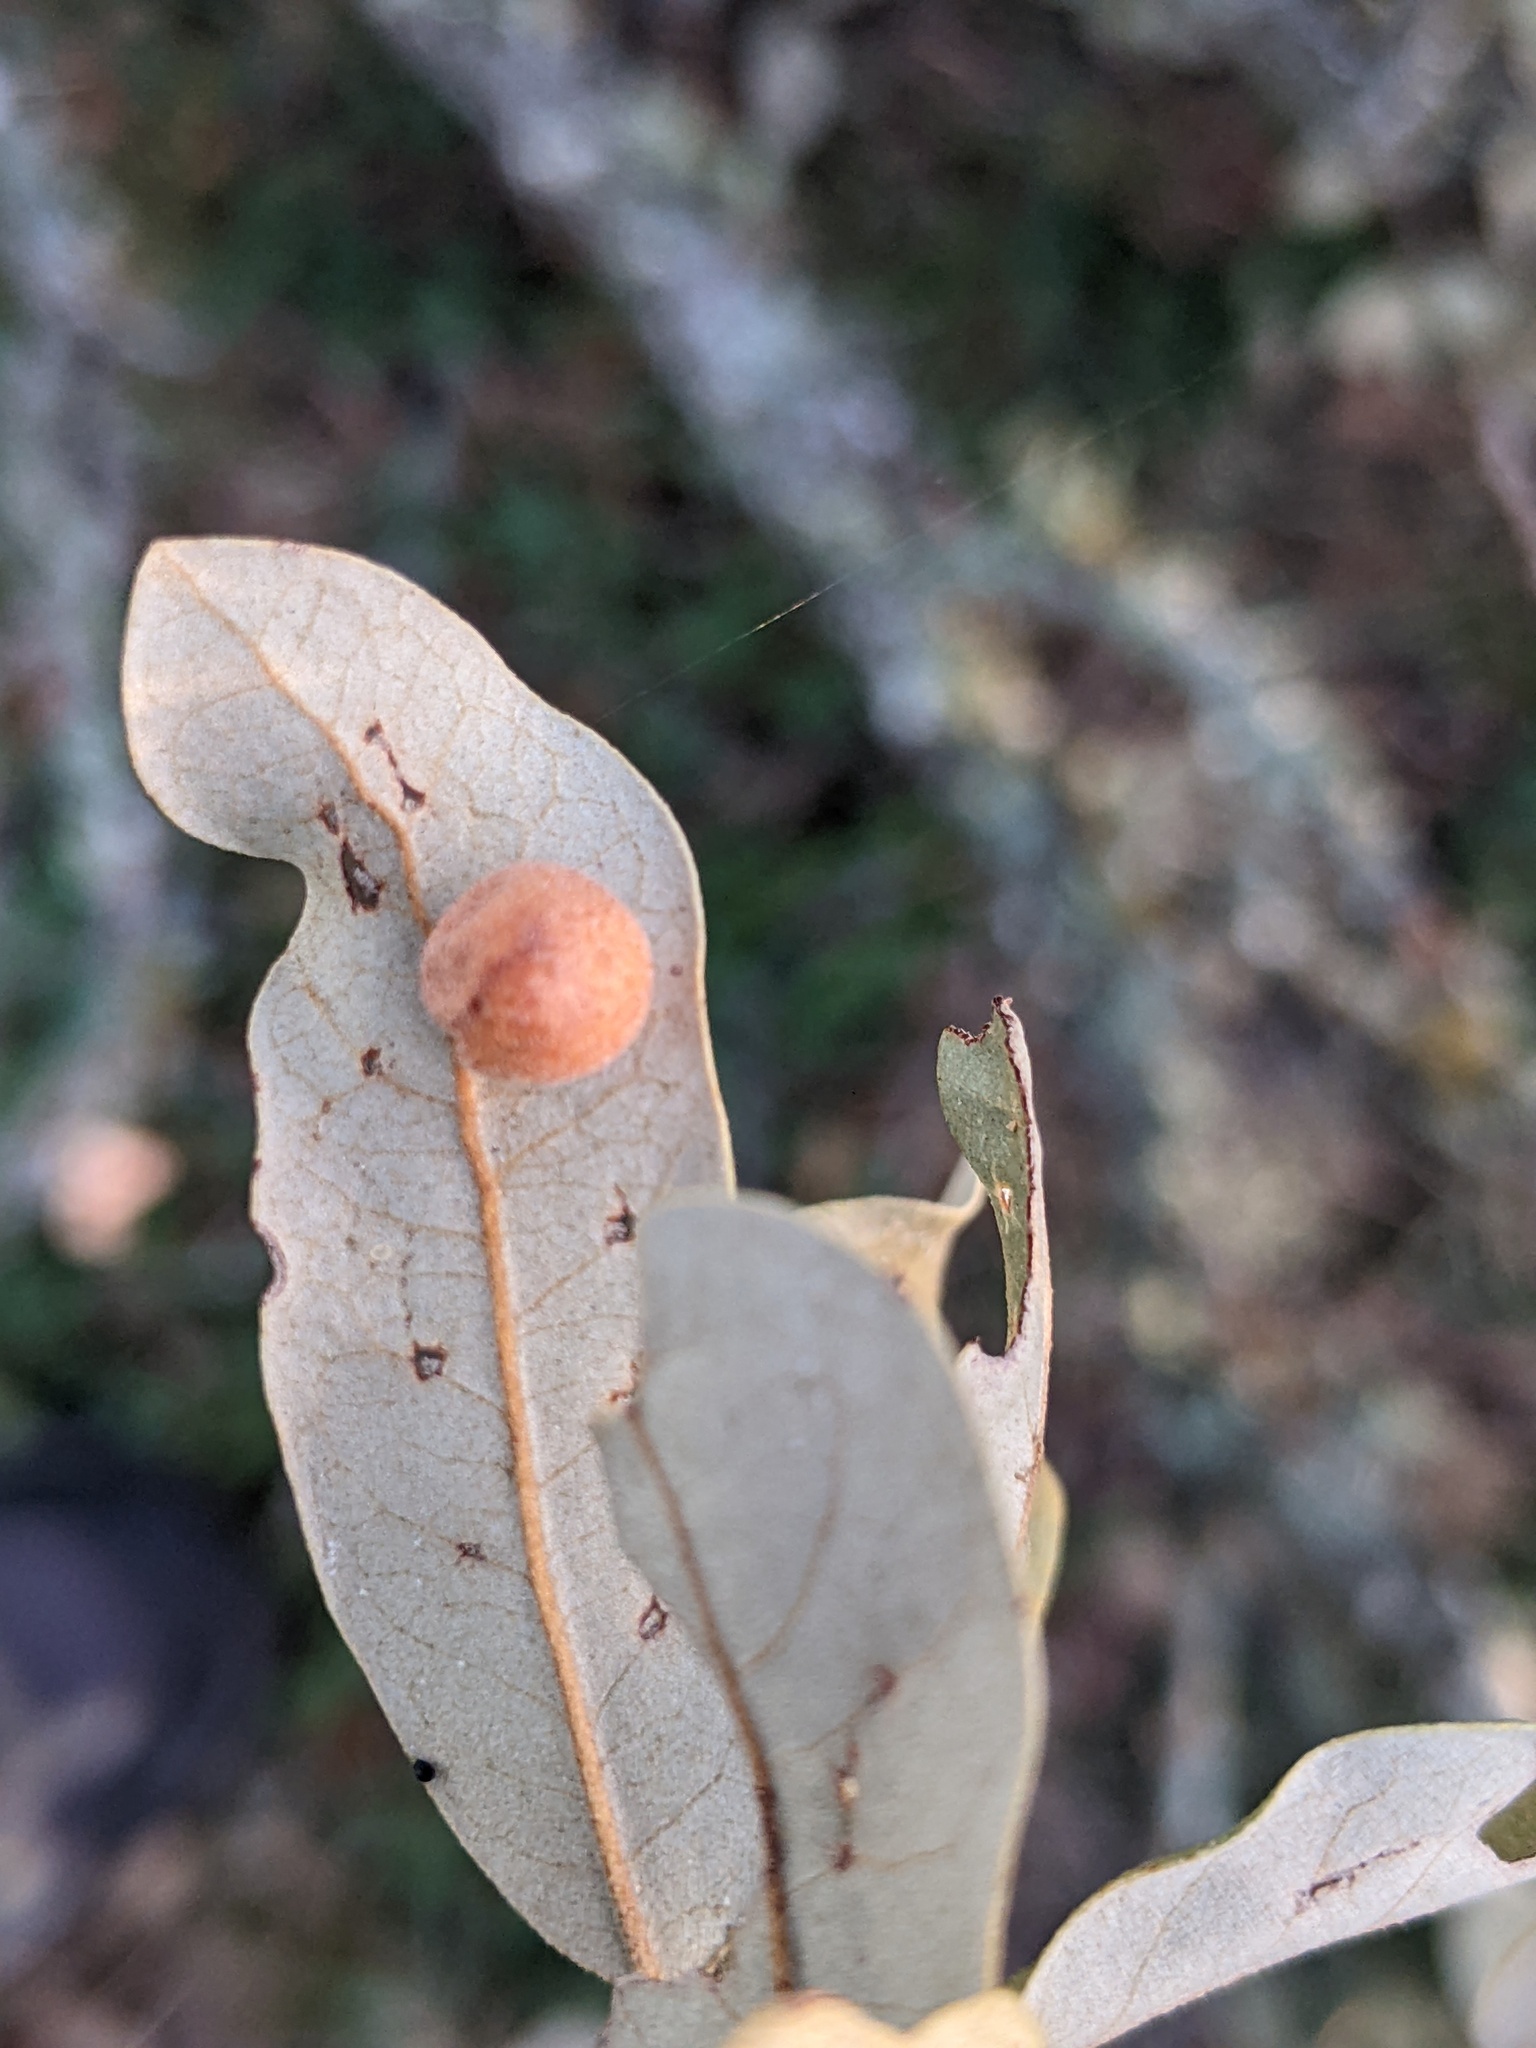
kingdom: Animalia
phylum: Arthropoda
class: Insecta
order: Hymenoptera
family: Cynipidae
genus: Belonocnema
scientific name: Belonocnema kinseyi
